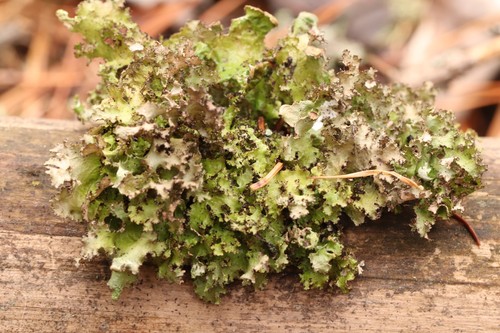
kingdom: Fungi
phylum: Ascomycota
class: Lecanoromycetes
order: Lecanorales
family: Parmeliaceae
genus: Nephromopsis
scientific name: Nephromopsis chlorophylla
